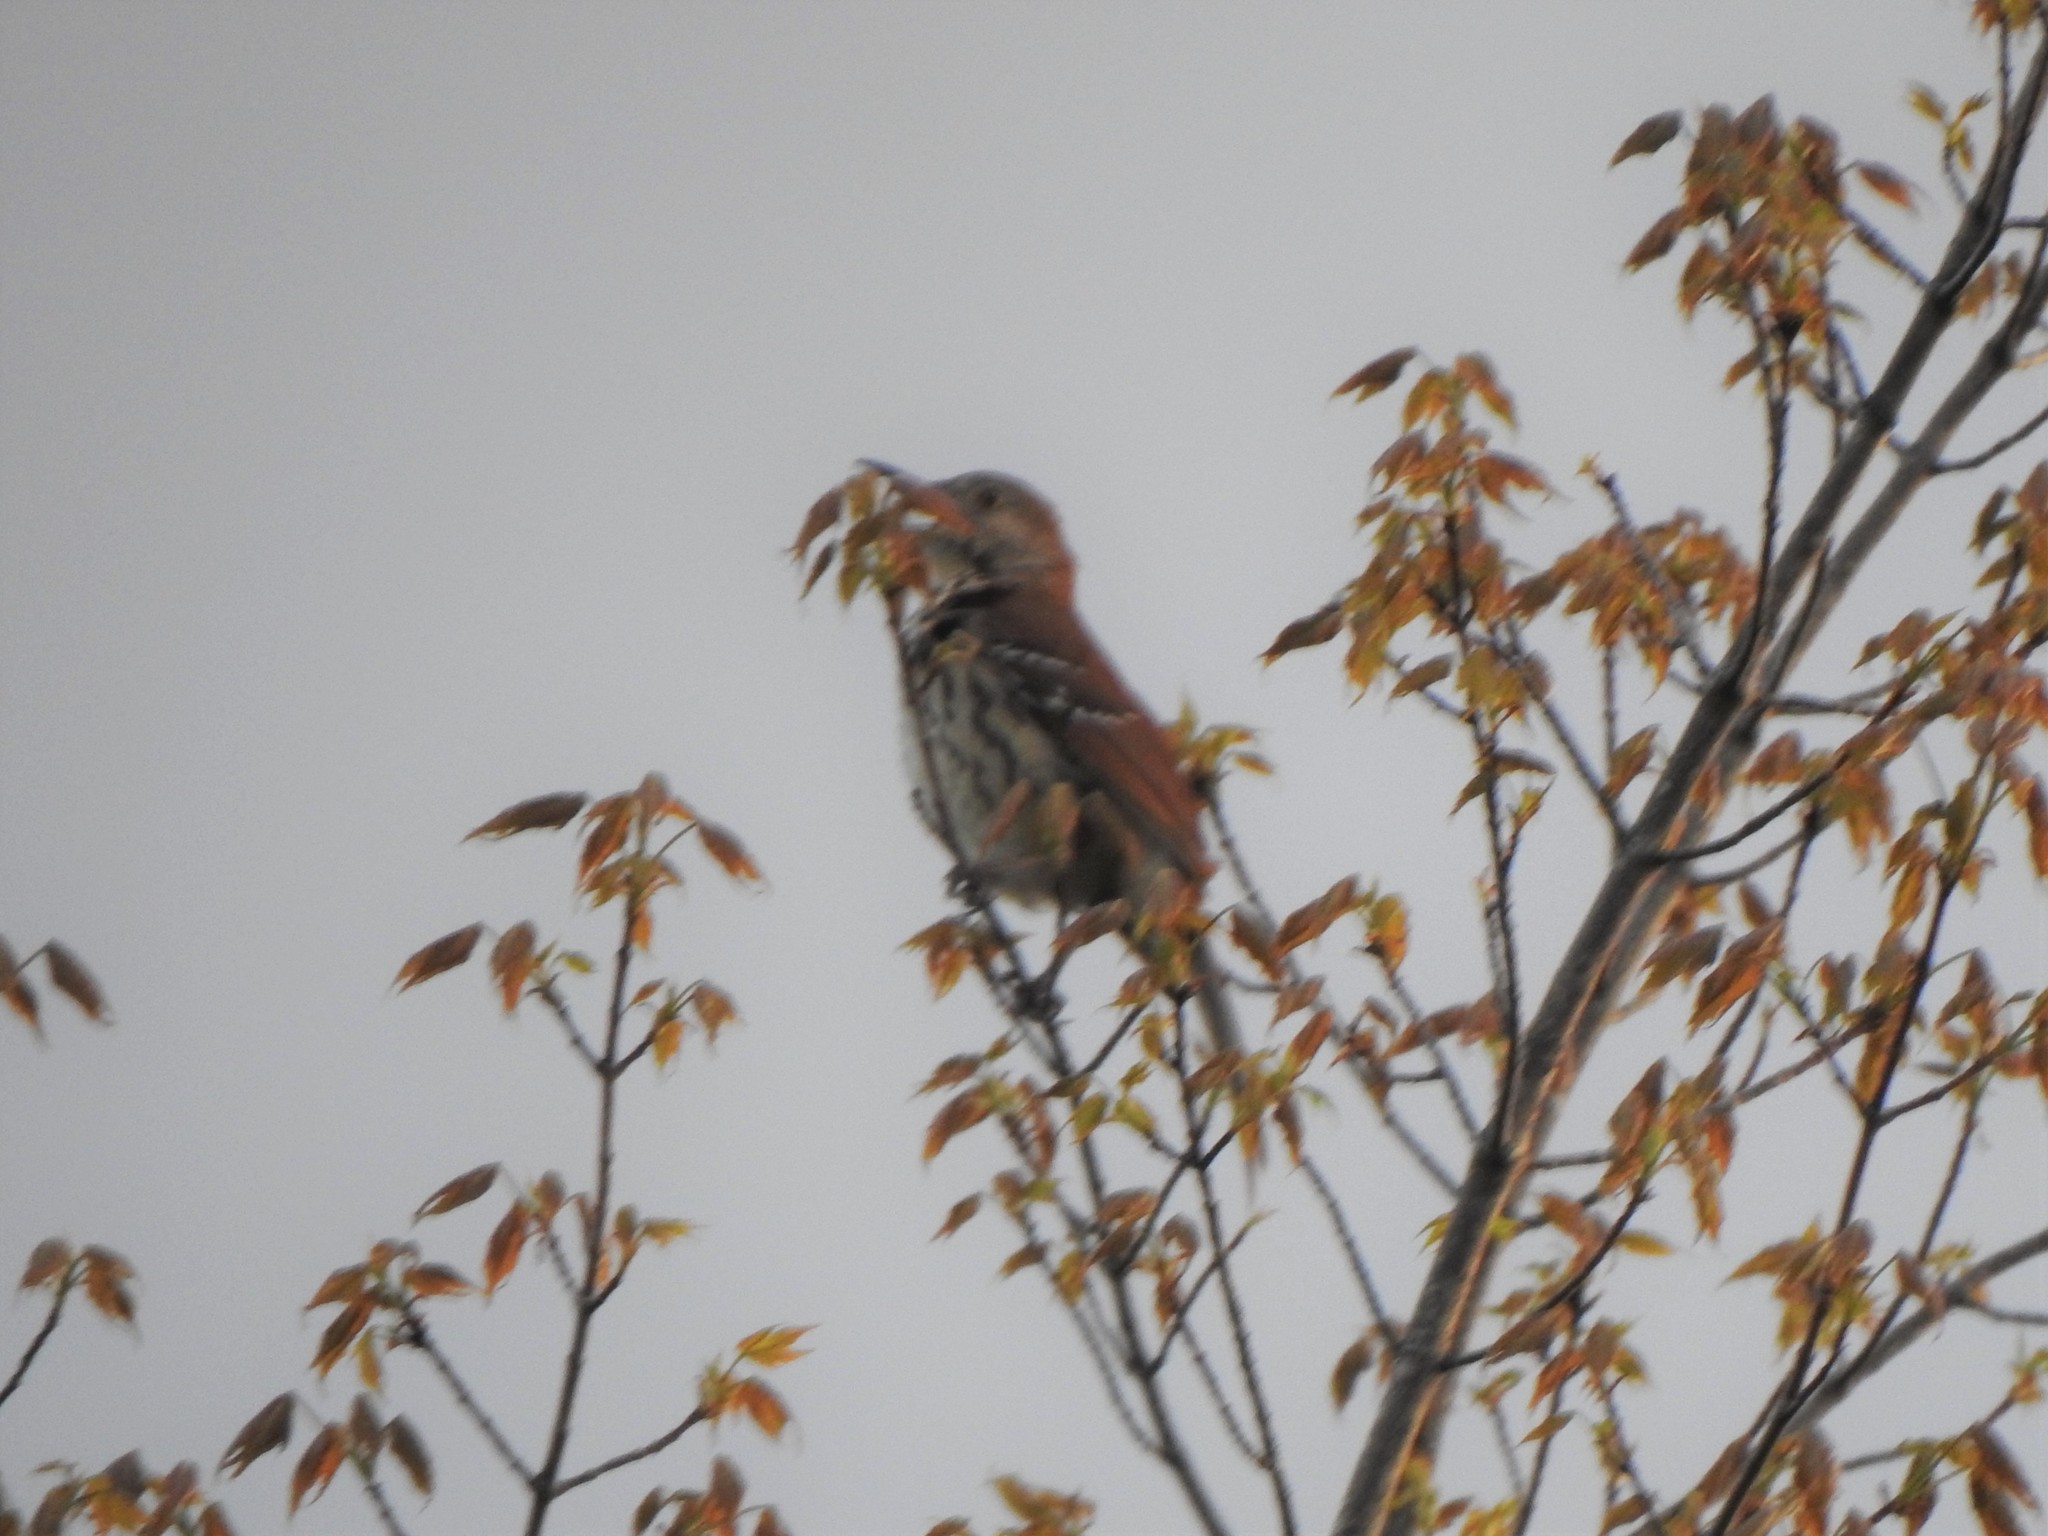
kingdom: Animalia
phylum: Chordata
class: Aves
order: Passeriformes
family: Mimidae
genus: Toxostoma
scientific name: Toxostoma rufum
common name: Brown thrasher
